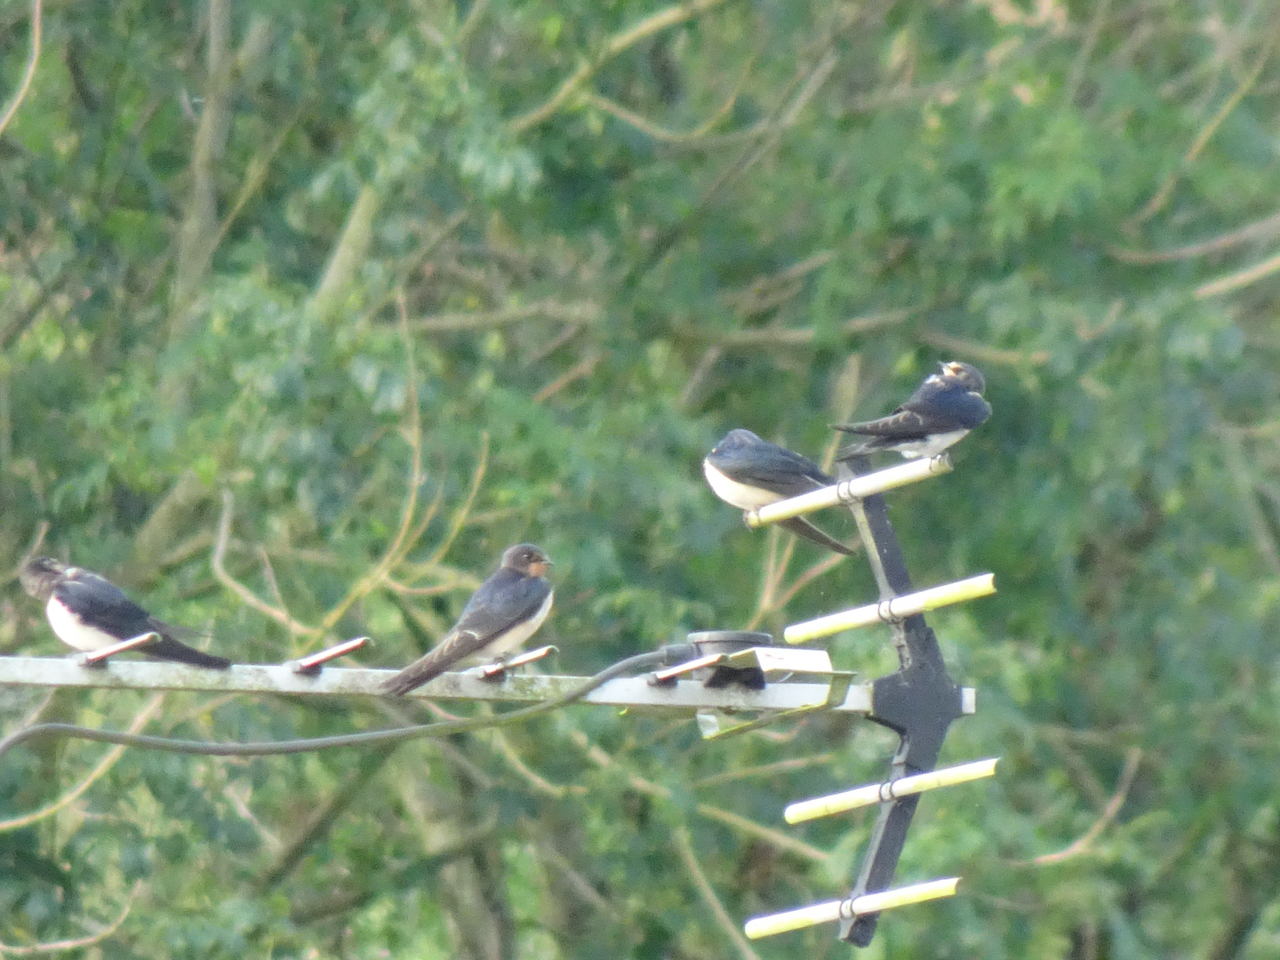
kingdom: Animalia
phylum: Chordata
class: Aves
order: Passeriformes
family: Hirundinidae
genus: Hirundo
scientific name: Hirundo rustica
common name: Barn swallow
